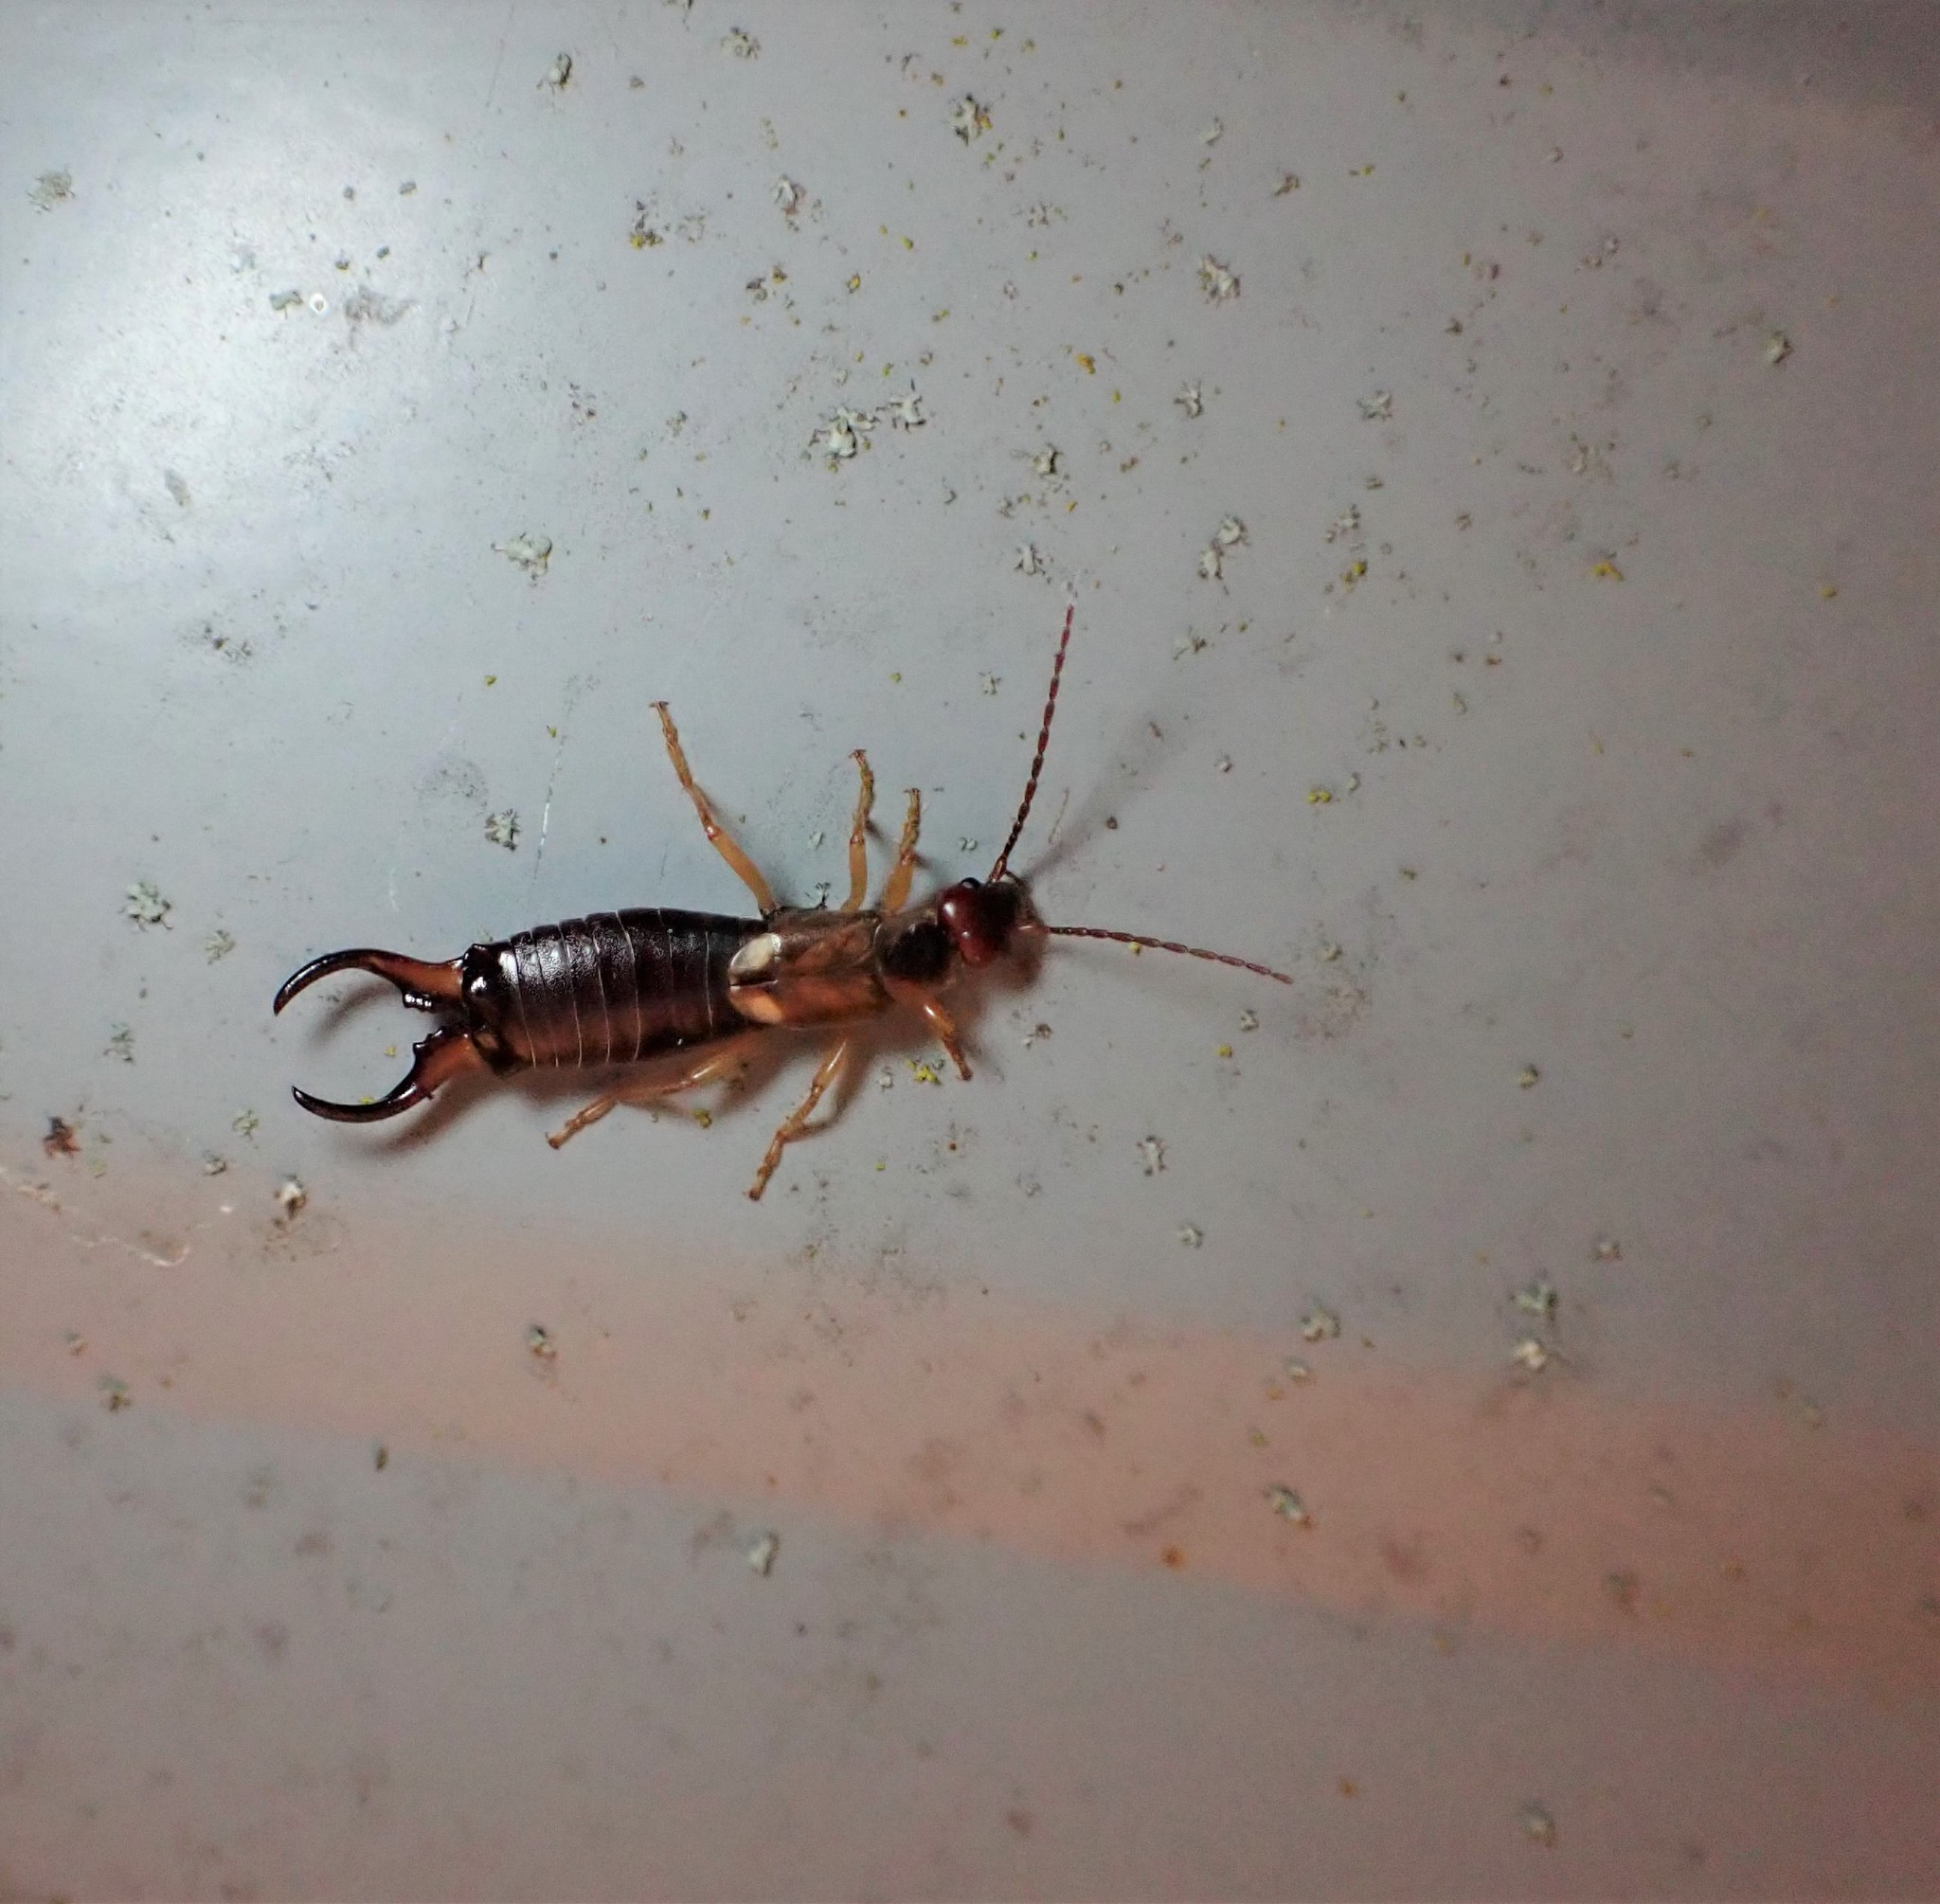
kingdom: Animalia
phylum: Arthropoda
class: Insecta
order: Dermaptera
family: Forficulidae
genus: Forficula
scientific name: Forficula
